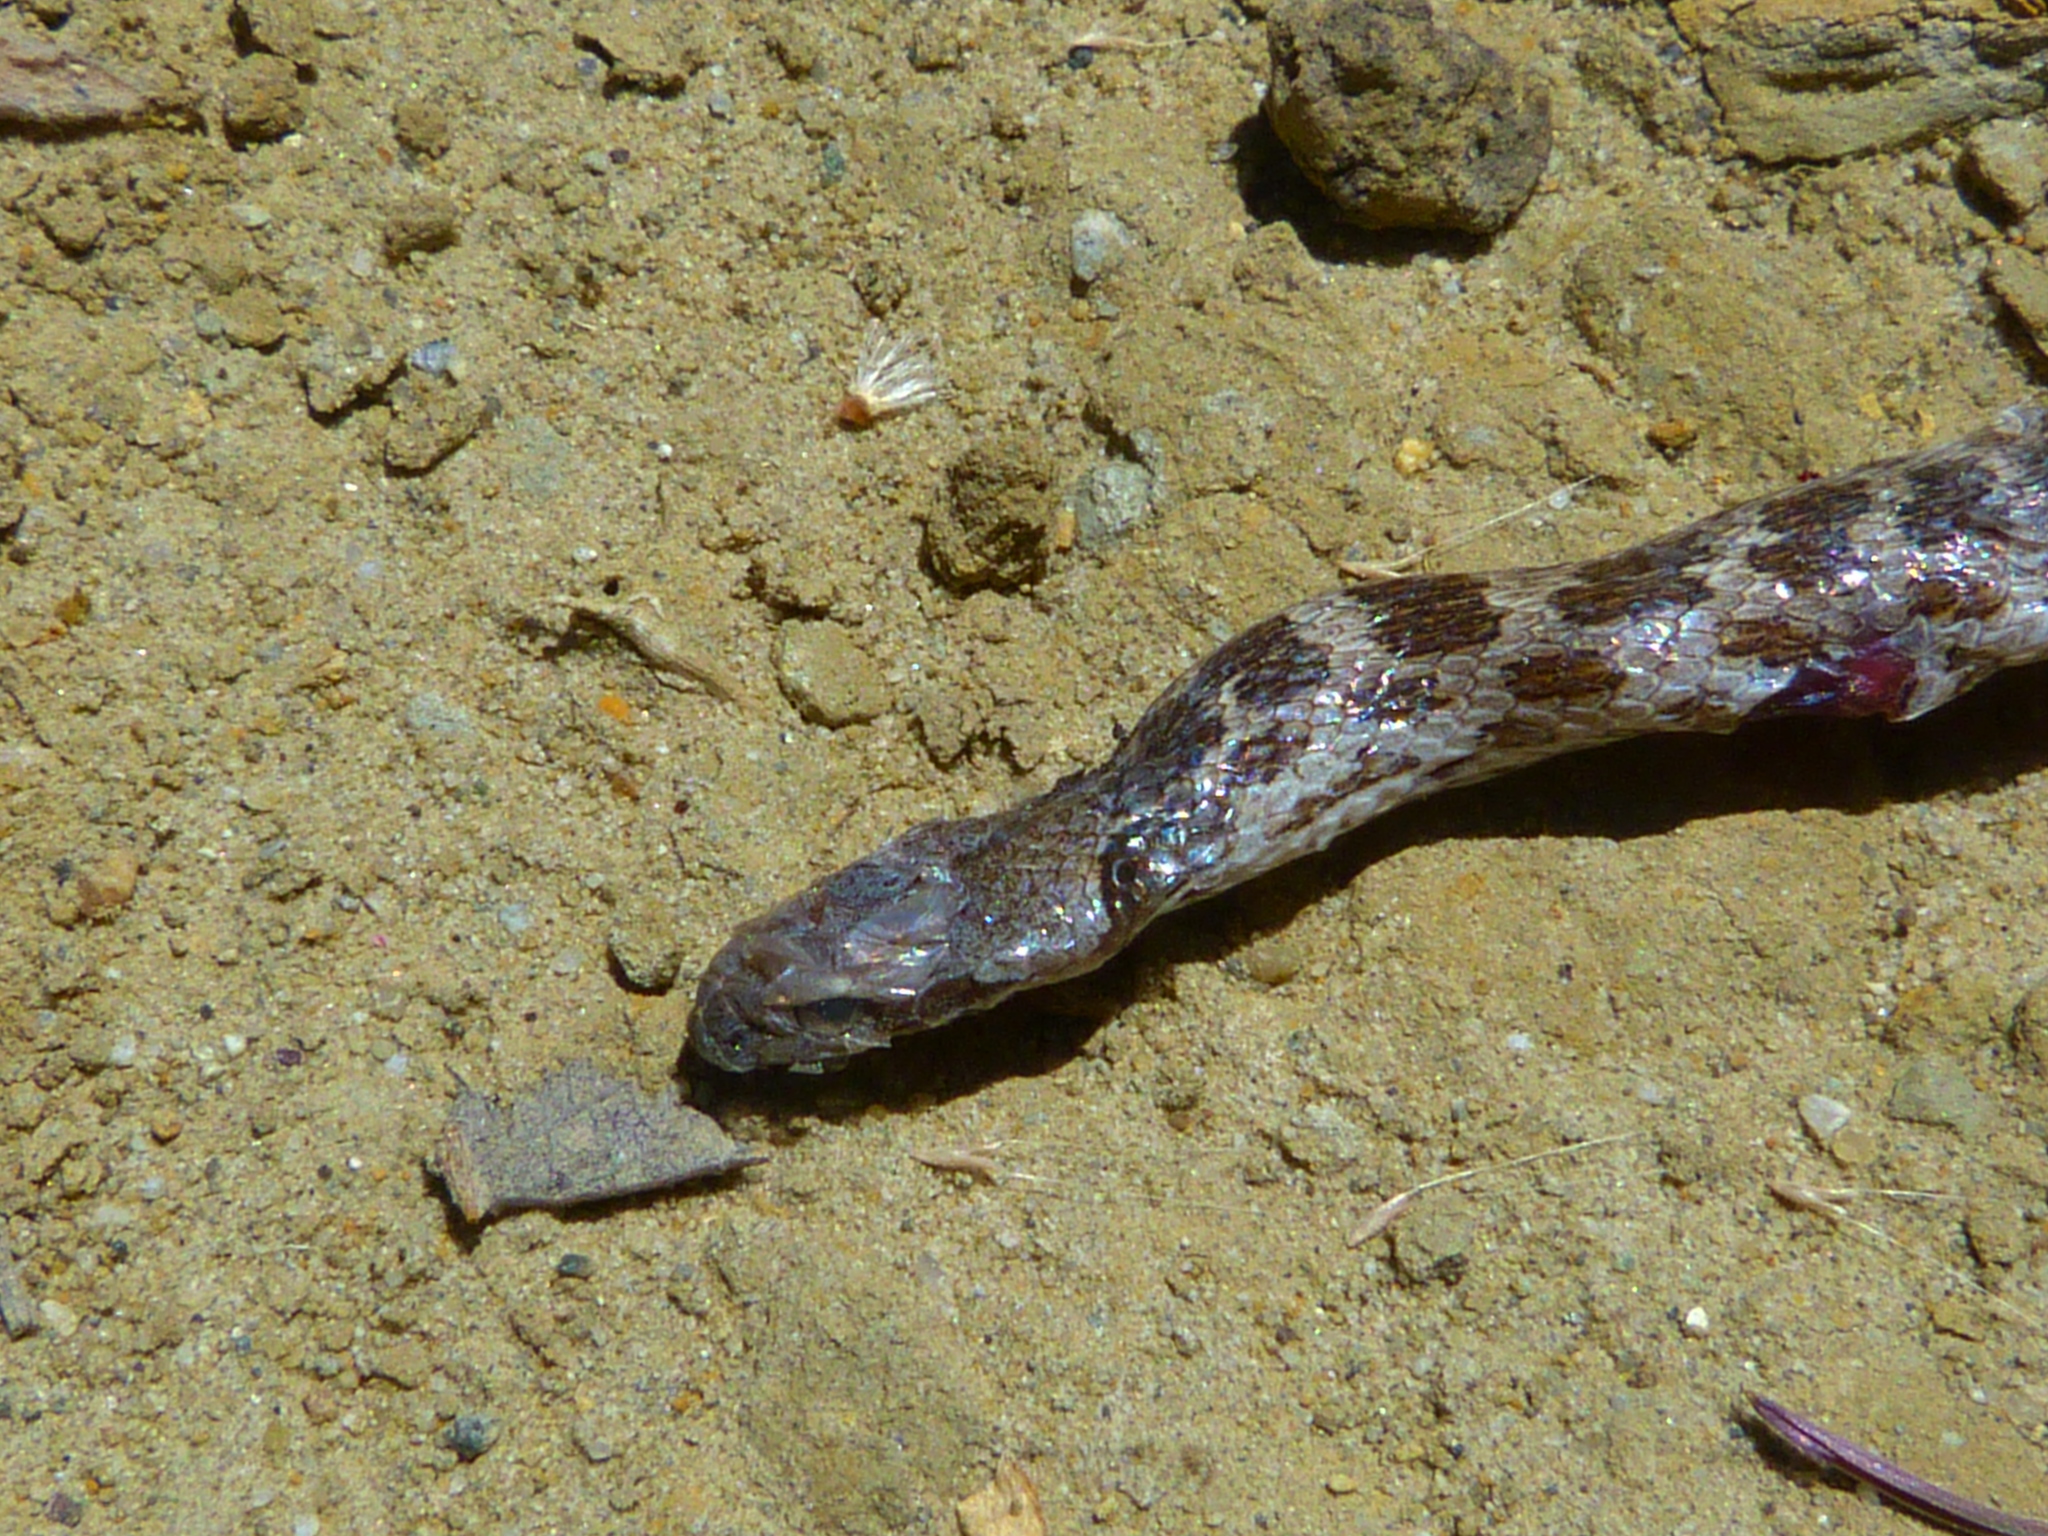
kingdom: Animalia
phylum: Chordata
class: Squamata
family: Colubridae
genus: Hypsiglena
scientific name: Hypsiglena ochrorhynchus
